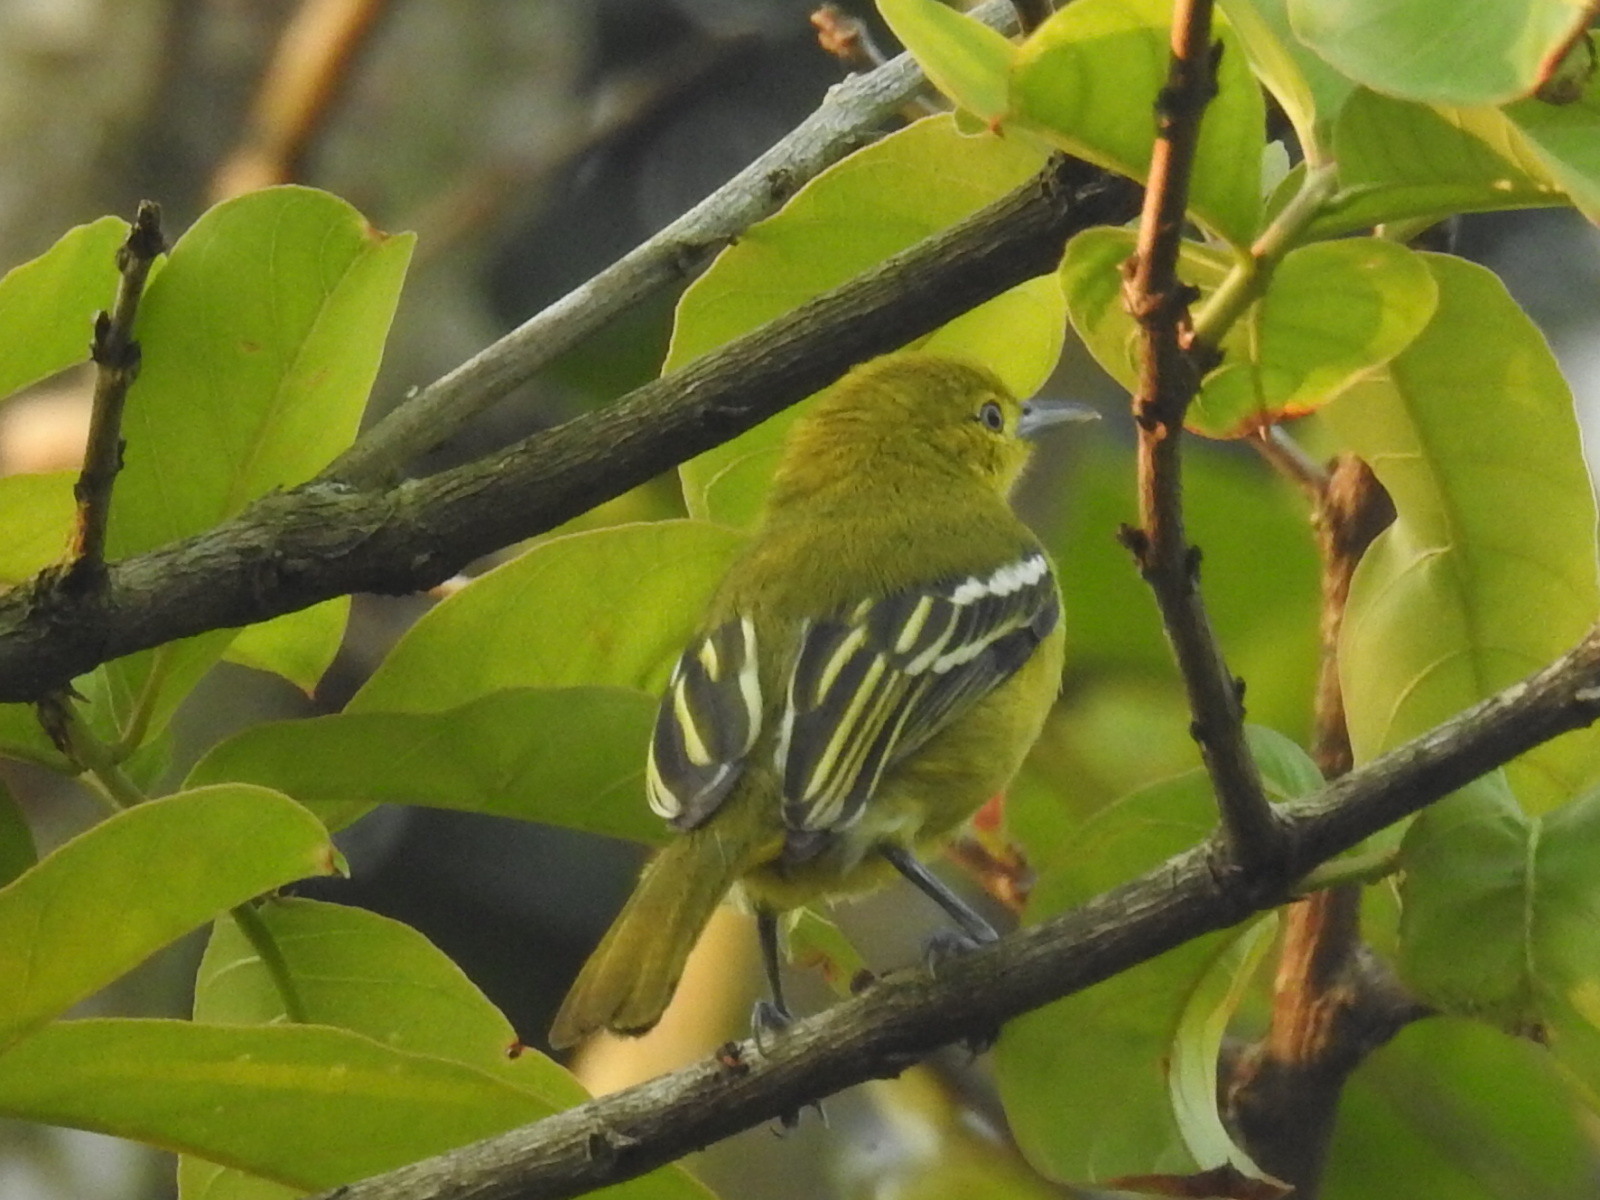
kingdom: Animalia
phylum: Chordata
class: Aves
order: Passeriformes
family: Aegithinidae
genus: Aegithina
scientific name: Aegithina tiphia
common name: Common iora
